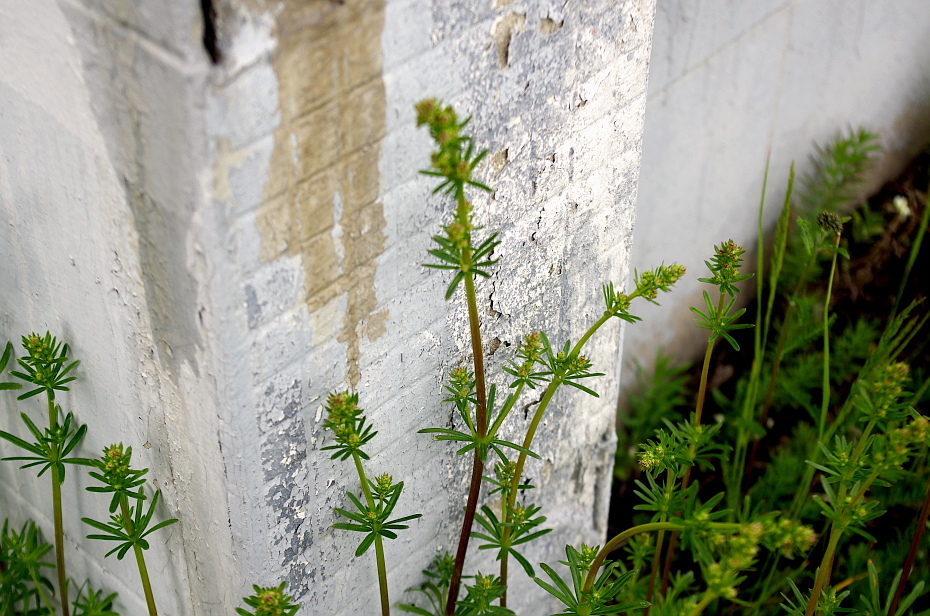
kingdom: Plantae
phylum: Tracheophyta
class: Magnoliopsida
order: Gentianales
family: Rubiaceae
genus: Galium
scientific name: Galium mollugo
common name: Hedge bedstraw
